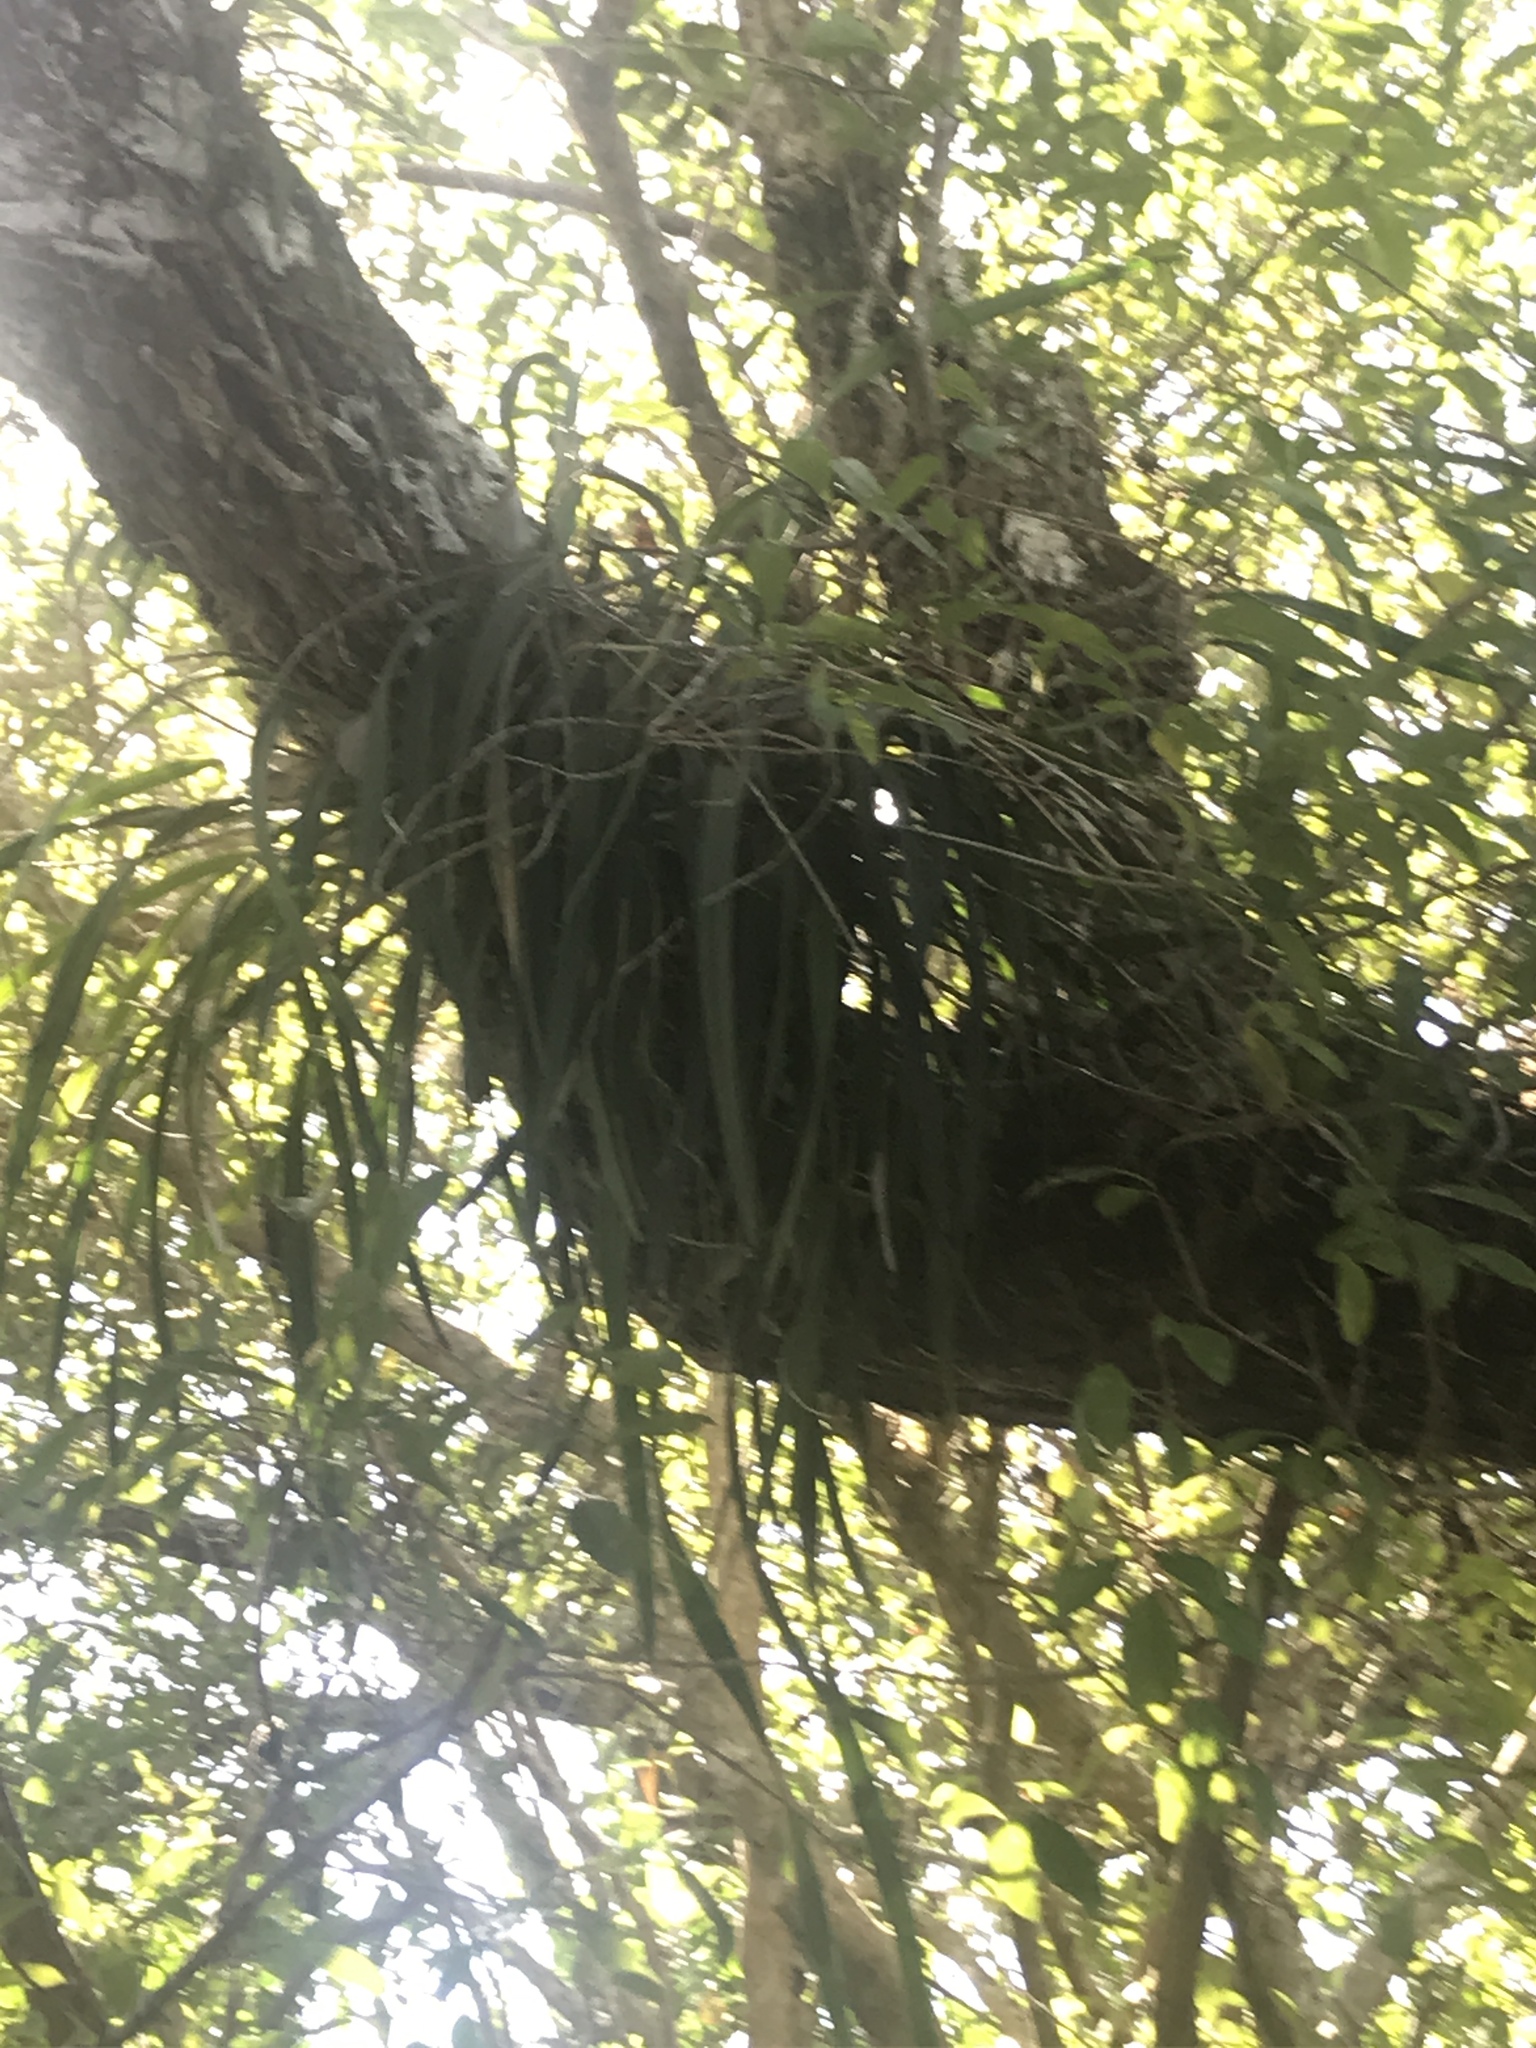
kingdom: Plantae
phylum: Tracheophyta
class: Polypodiopsida
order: Polypodiales
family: Pteridaceae
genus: Vittaria
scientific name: Vittaria lineata
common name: Shoestring fern
